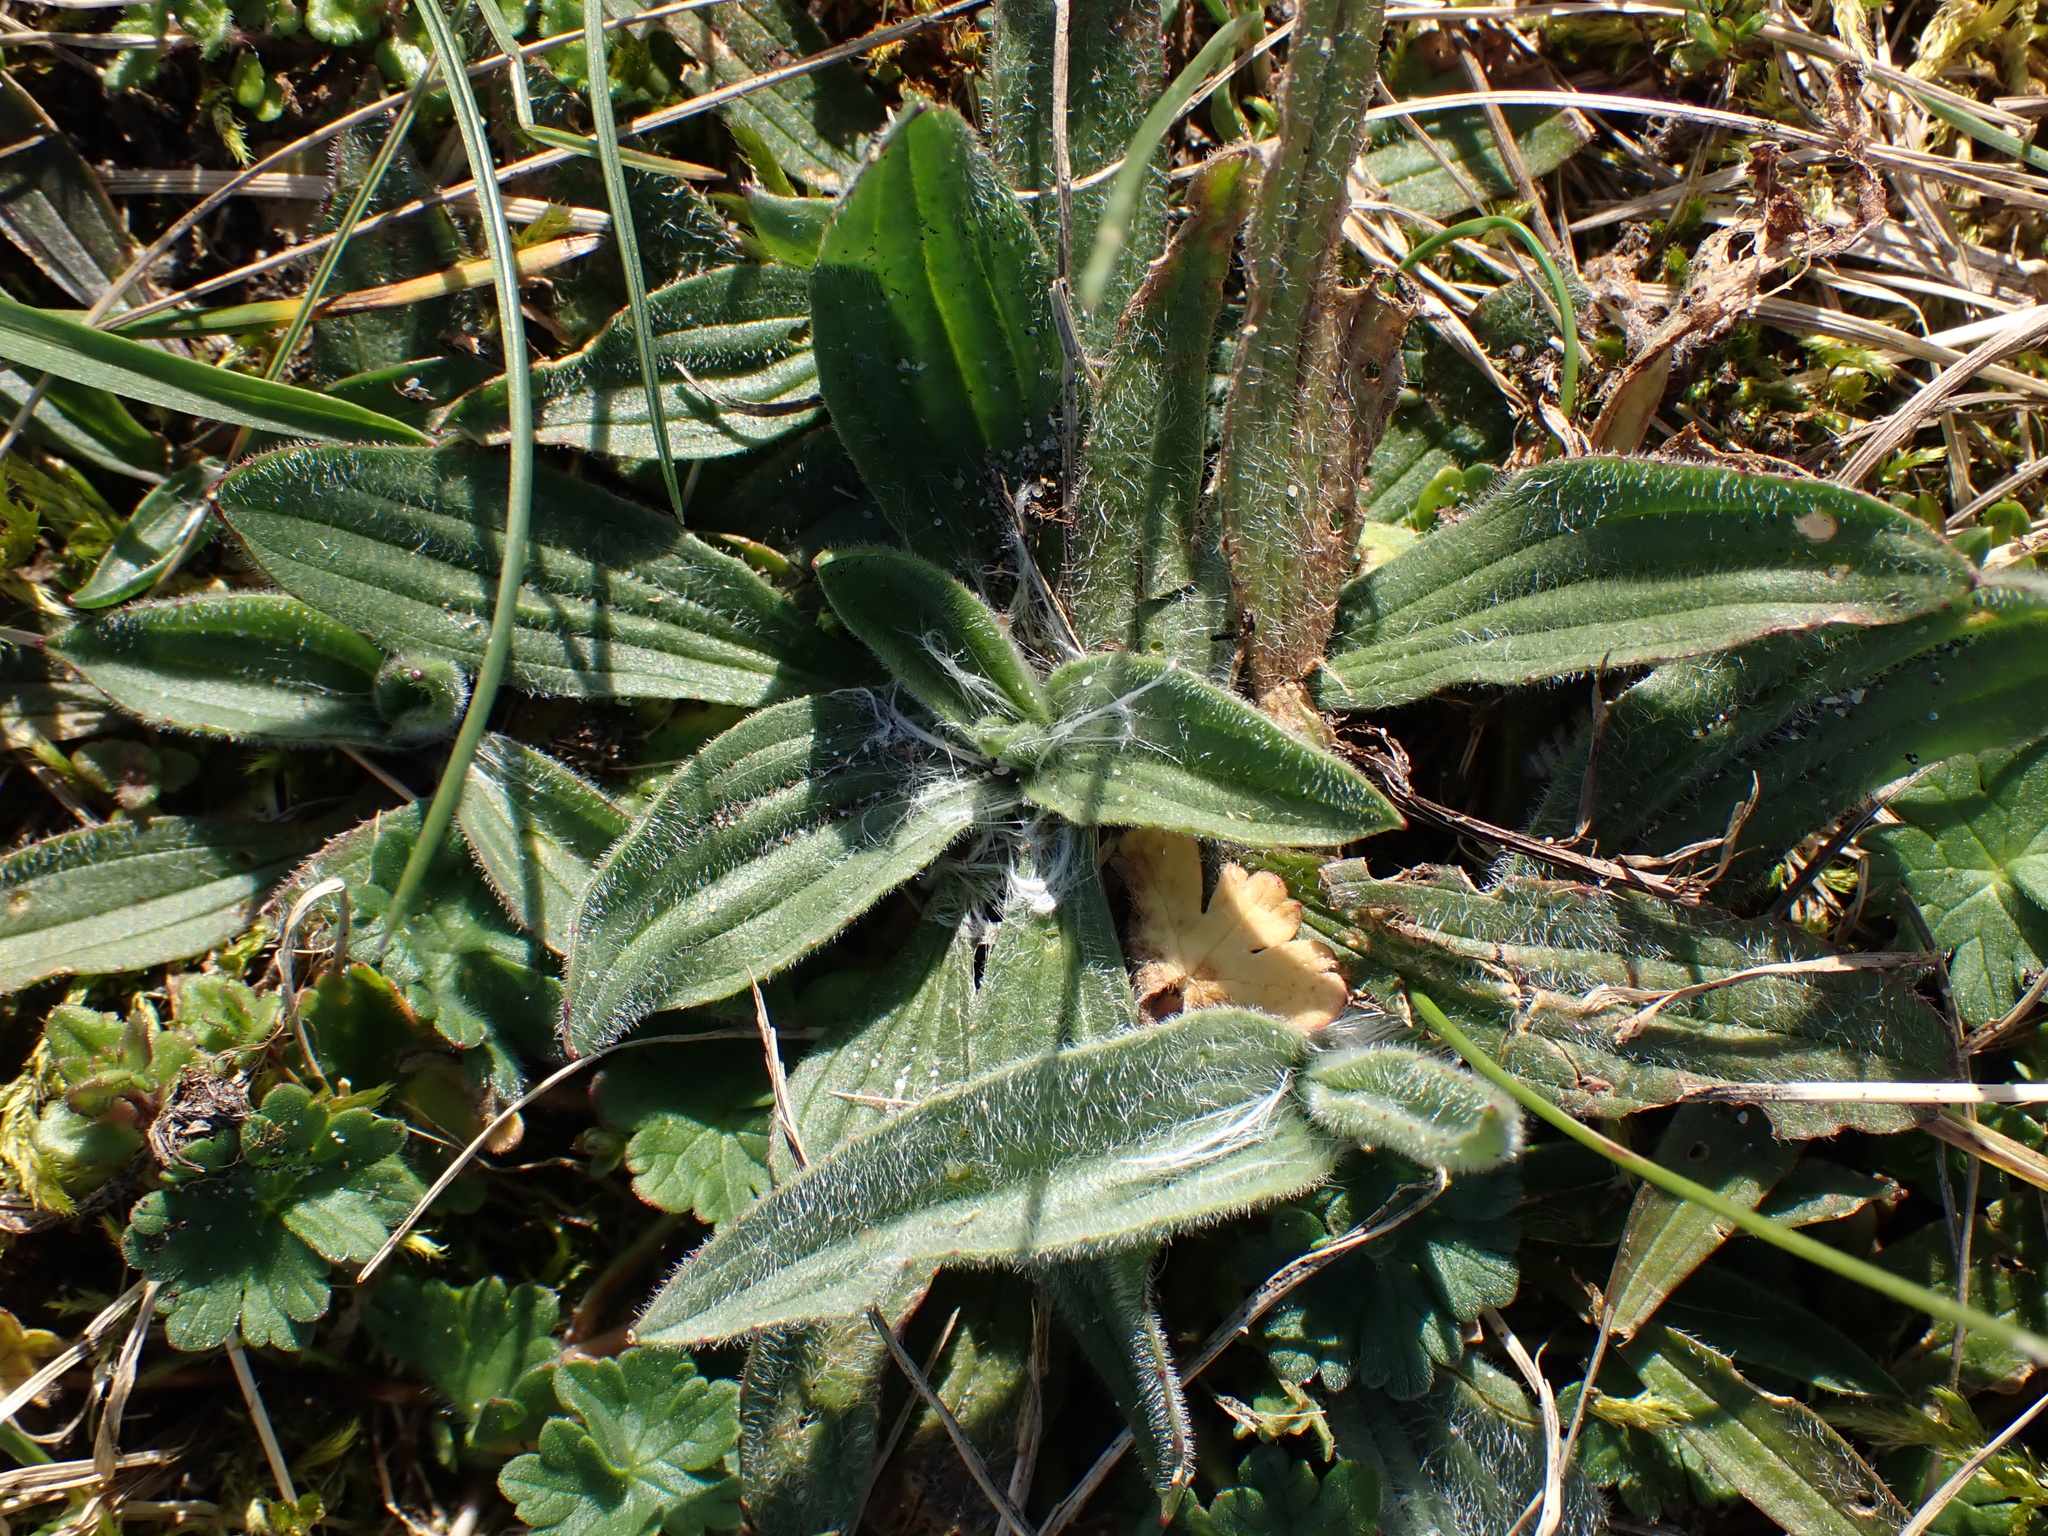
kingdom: Plantae
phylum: Tracheophyta
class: Magnoliopsida
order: Lamiales
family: Plantaginaceae
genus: Plantago
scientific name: Plantago lanceolata
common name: Ribwort plantain
